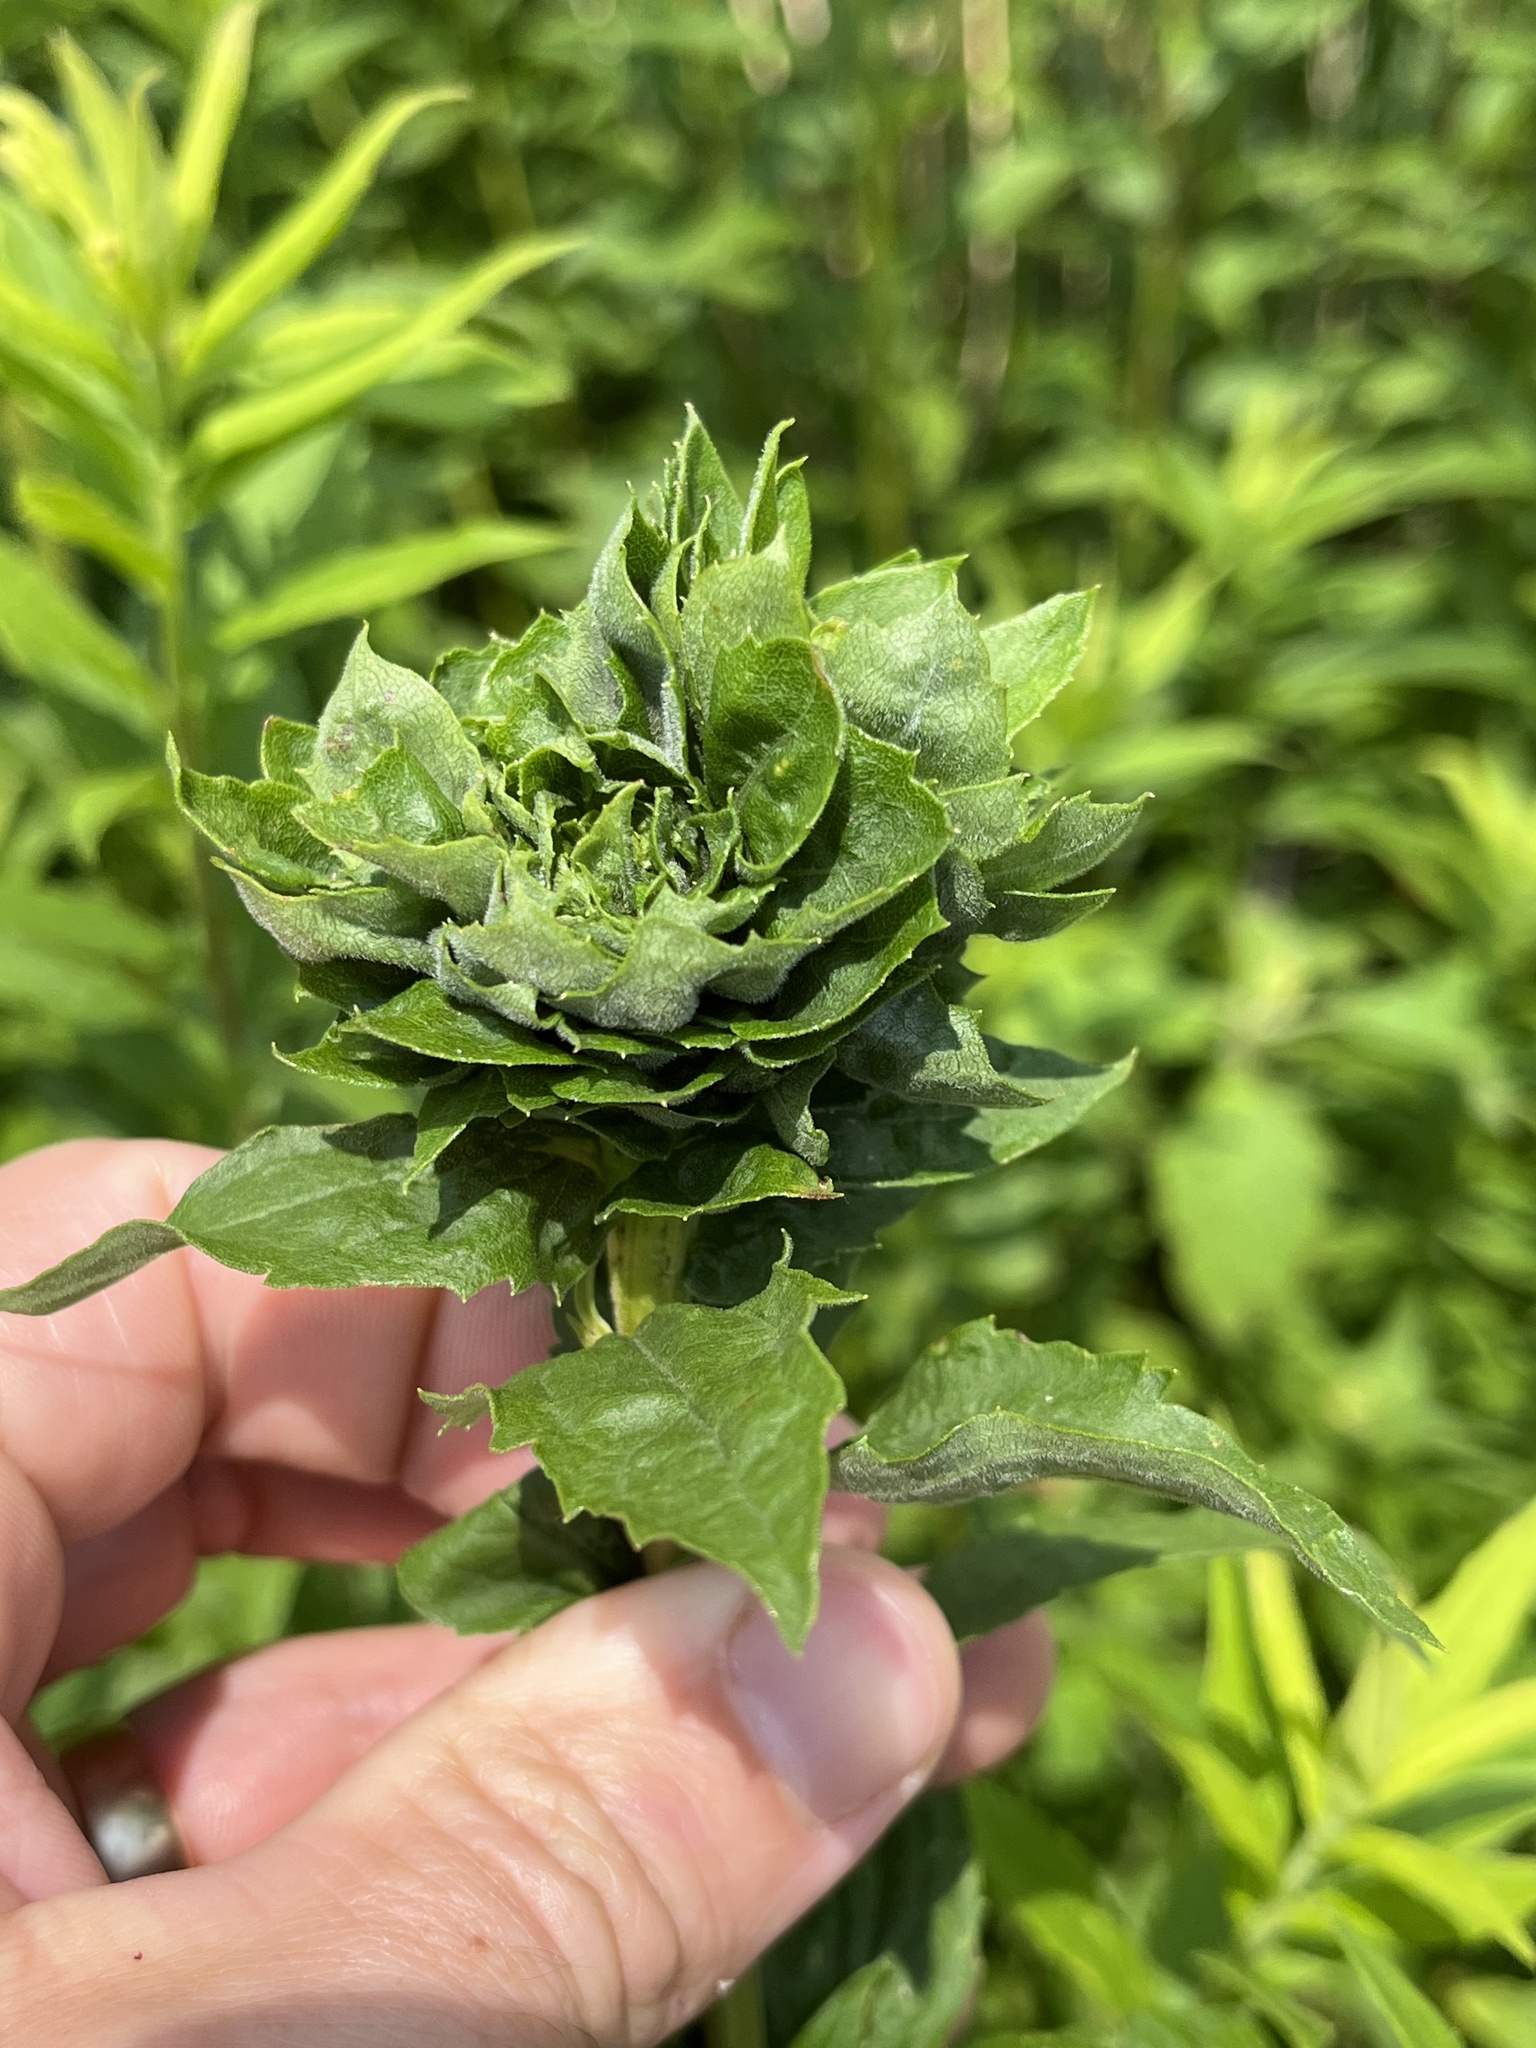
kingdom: Animalia
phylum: Arthropoda
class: Insecta
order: Diptera
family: Cecidomyiidae
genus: Rhopalomyia
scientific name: Rhopalomyia solidaginis
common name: Goldenrod bunch gall midge
